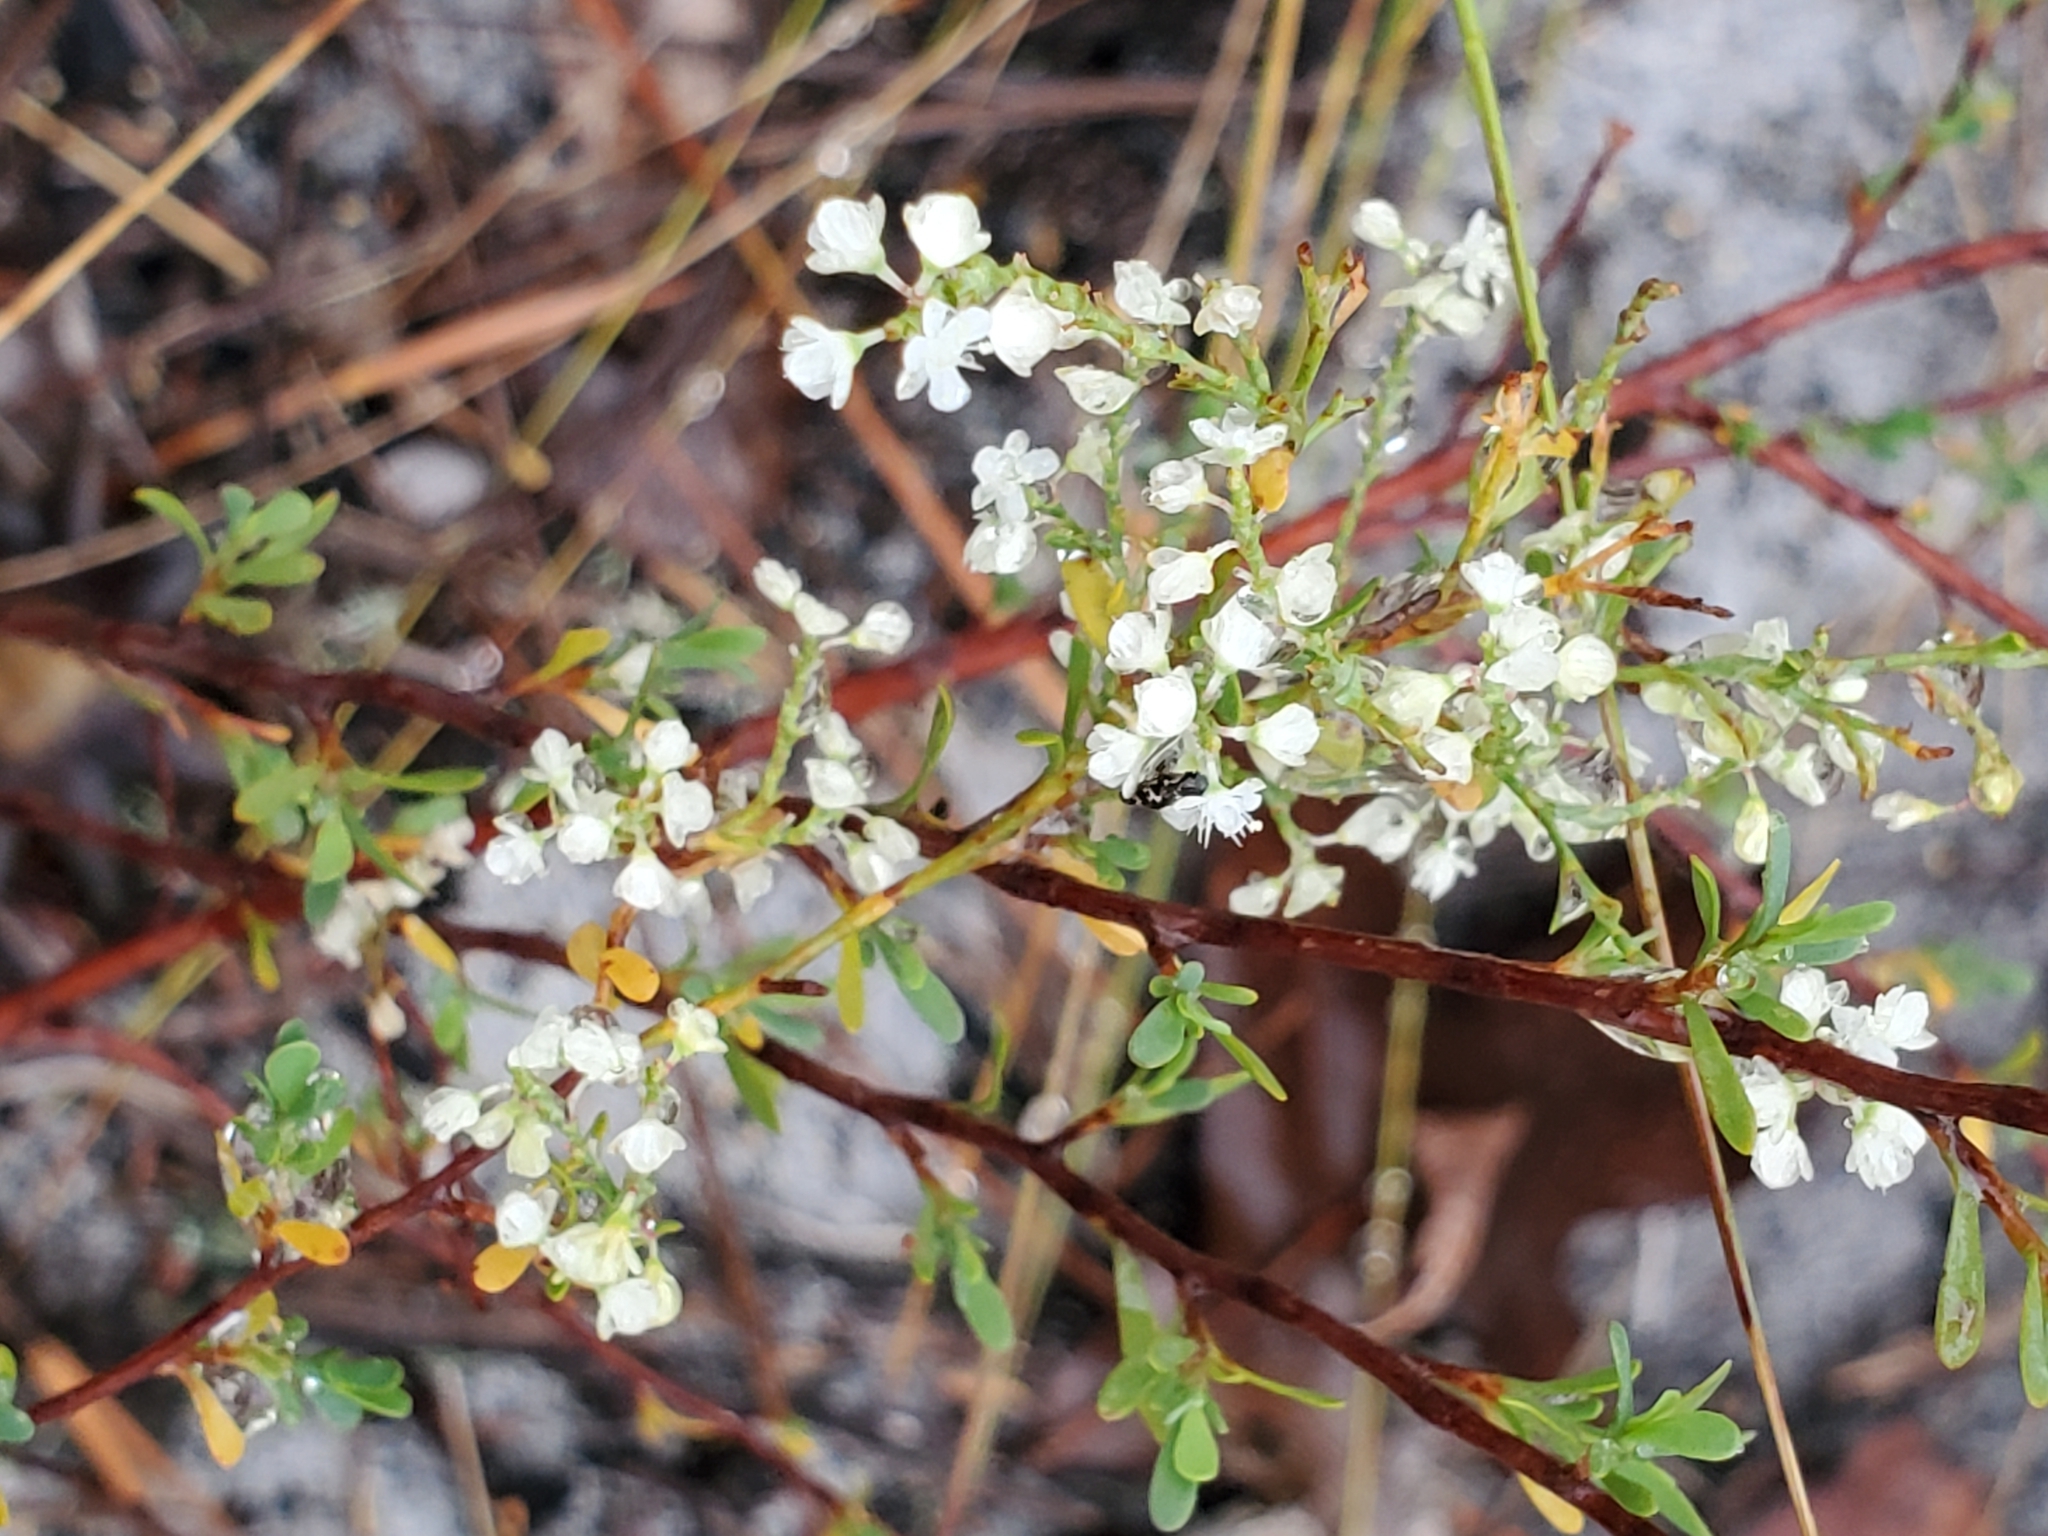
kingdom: Plantae
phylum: Tracheophyta
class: Magnoliopsida
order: Caryophyllales
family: Polygonaceae
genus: Polygonella
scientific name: Polygonella polygama
